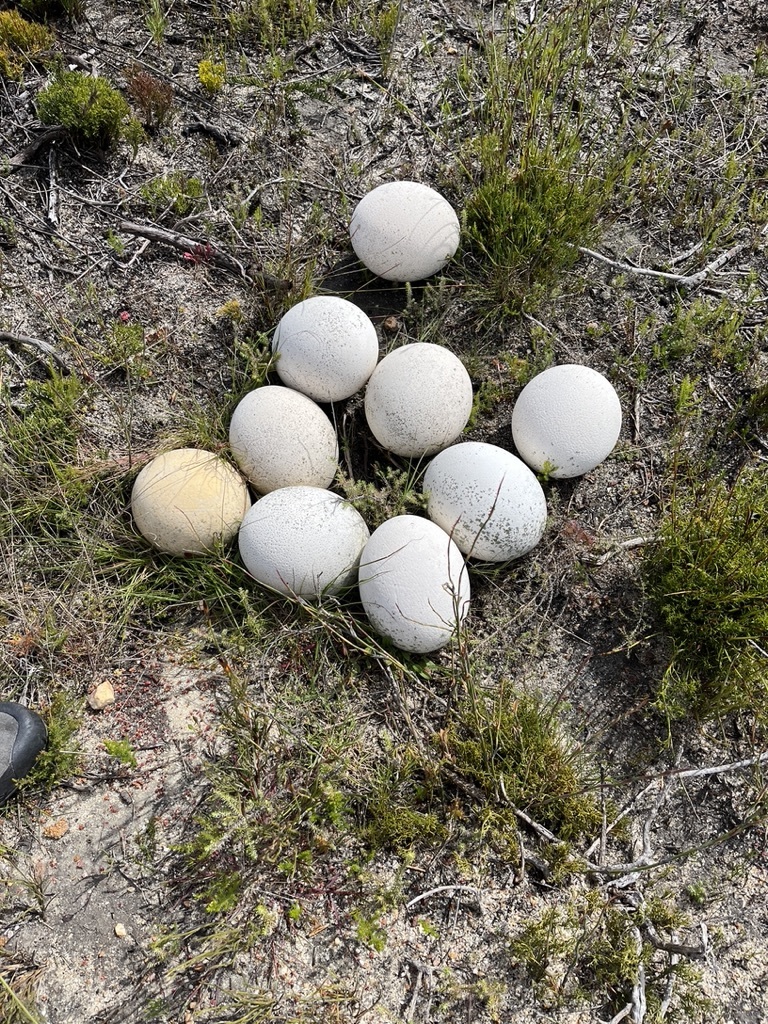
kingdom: Animalia
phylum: Chordata
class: Aves
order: Struthioniformes
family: Struthionidae
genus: Struthio
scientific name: Struthio camelus
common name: Common ostrich
